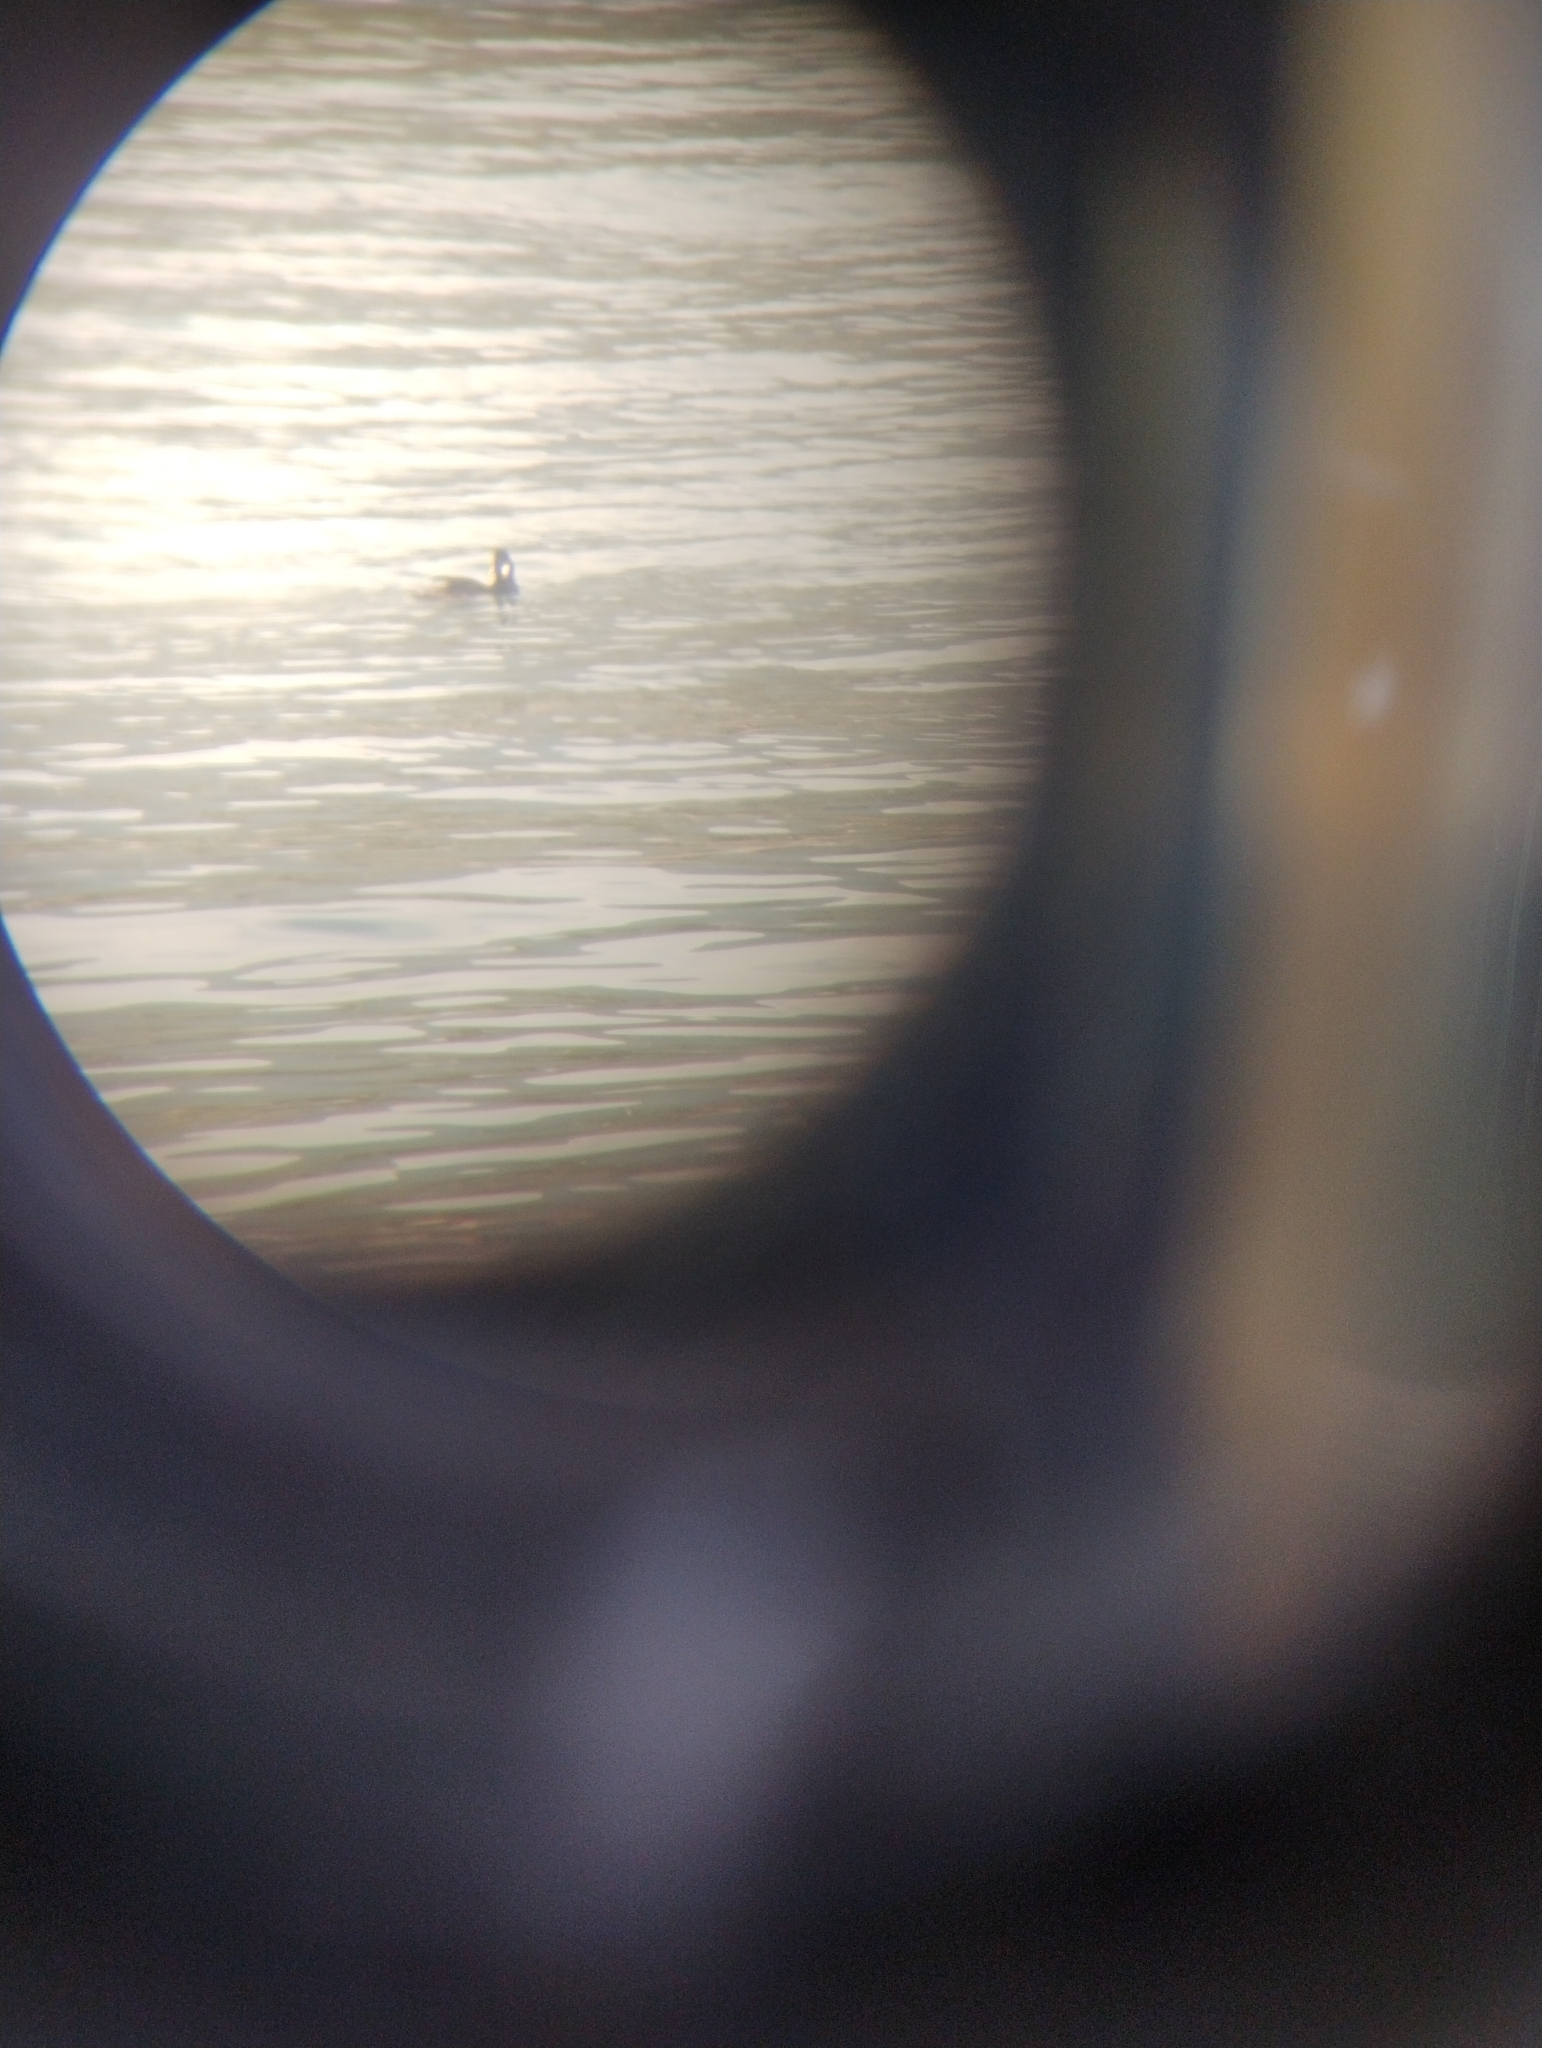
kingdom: Animalia
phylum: Chordata
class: Aves
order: Anseriformes
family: Anatidae
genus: Melanitta
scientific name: Melanitta perspicillata
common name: Surf scoter
